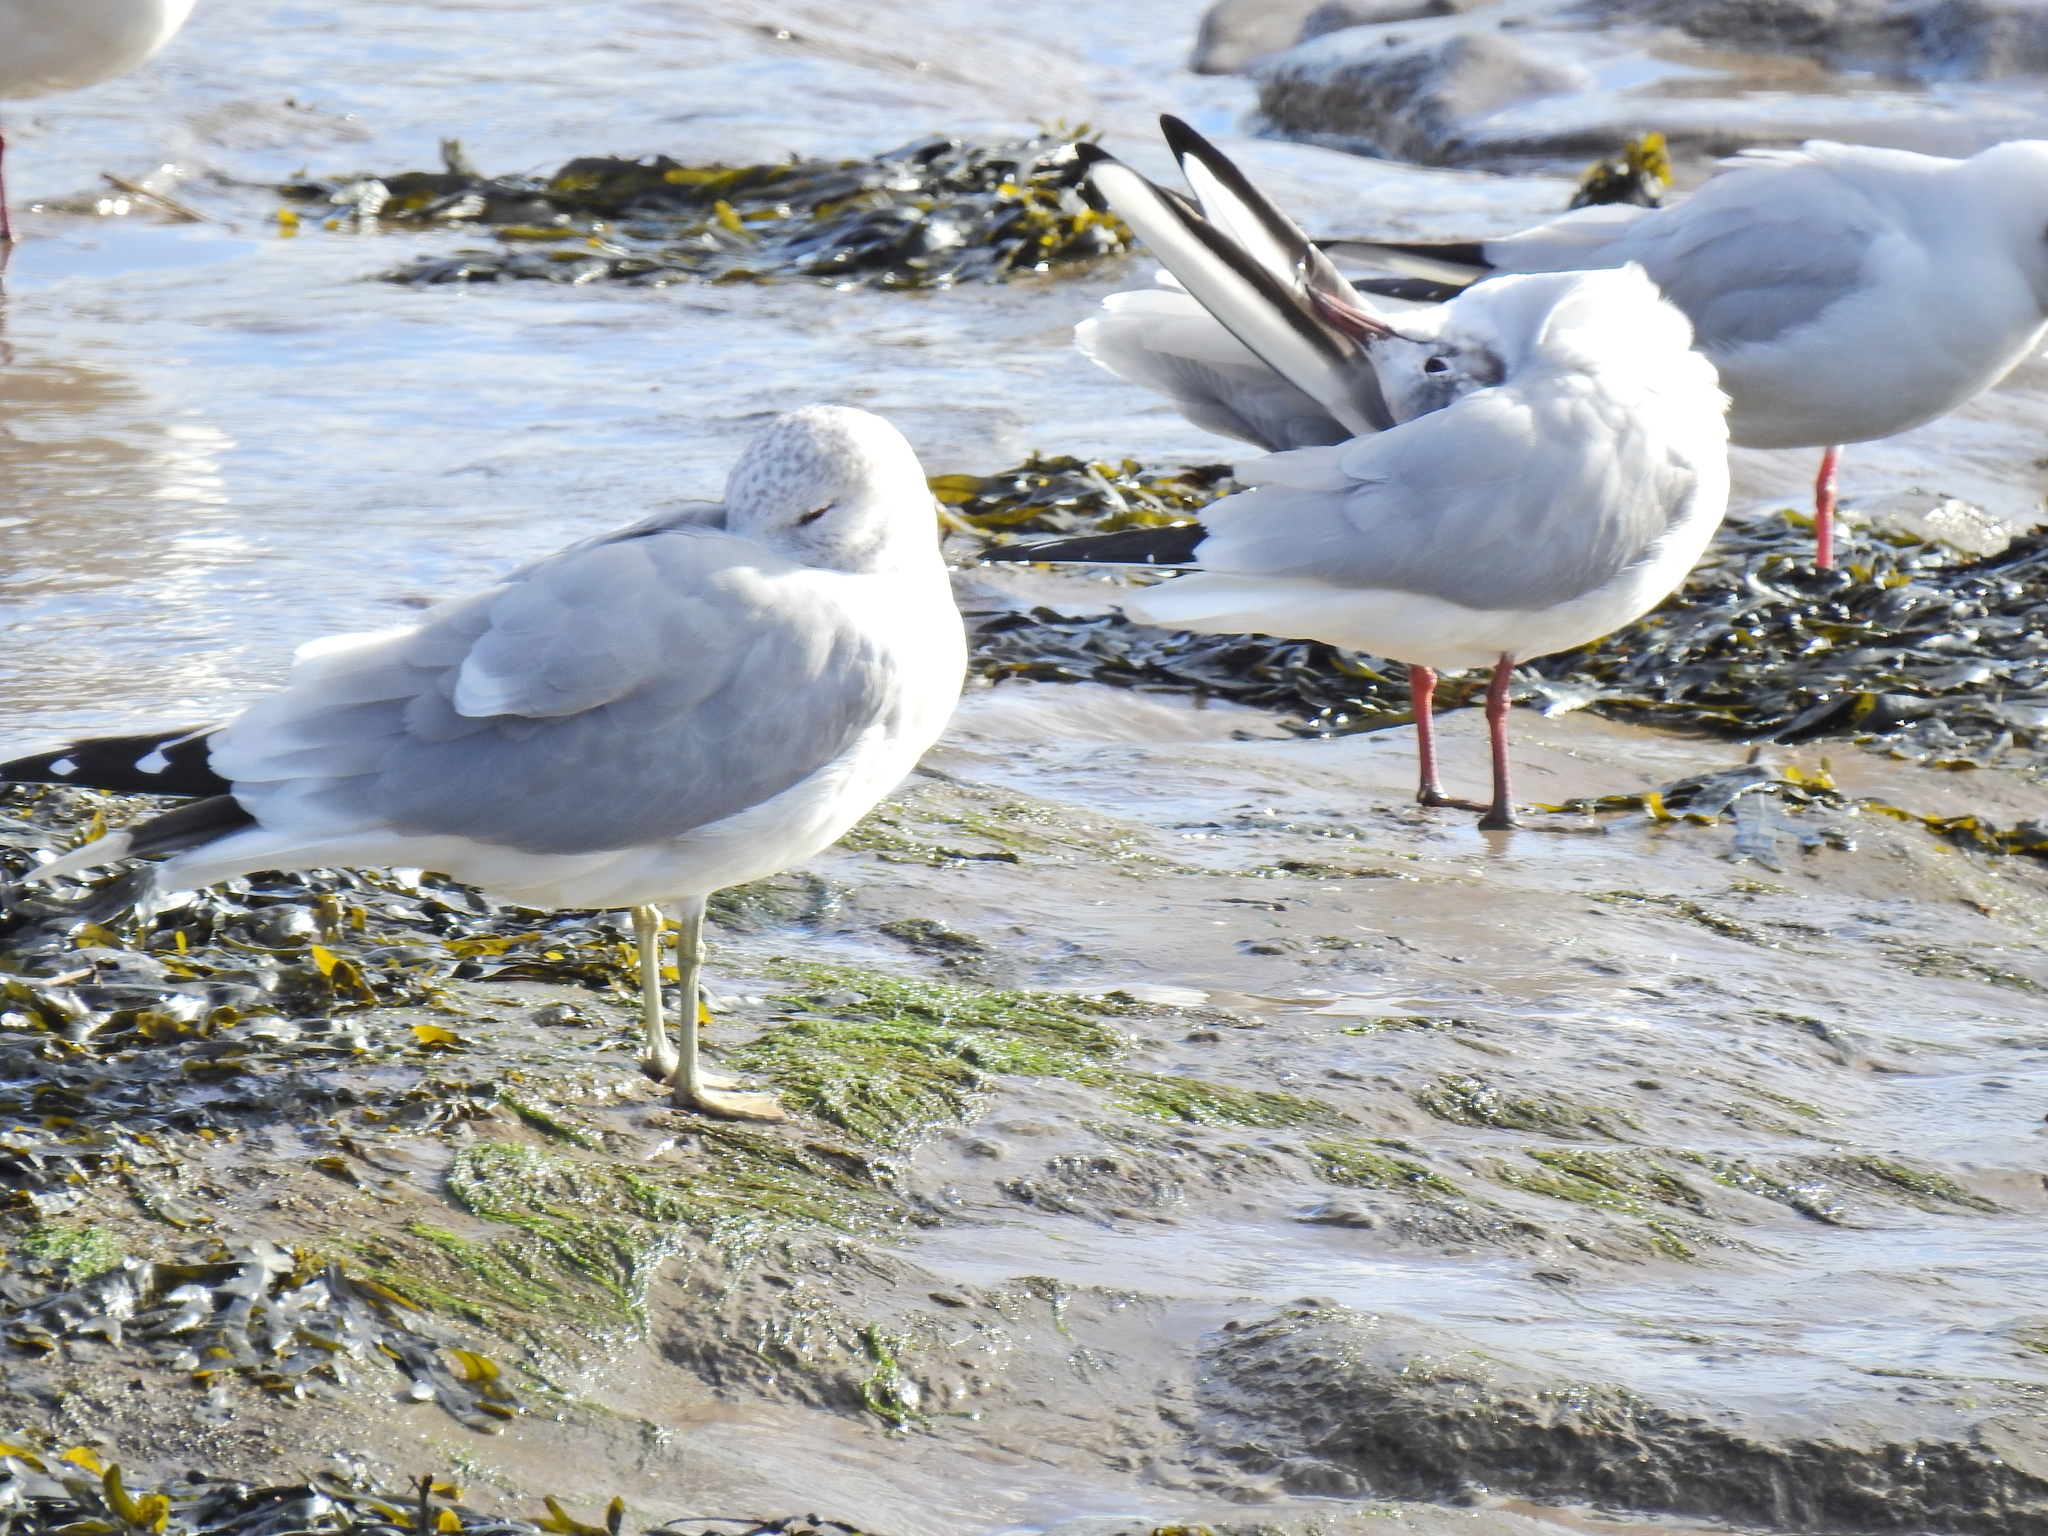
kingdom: Animalia
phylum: Chordata
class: Aves
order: Charadriiformes
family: Laridae
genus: Larus
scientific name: Larus canus
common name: Mew gull
